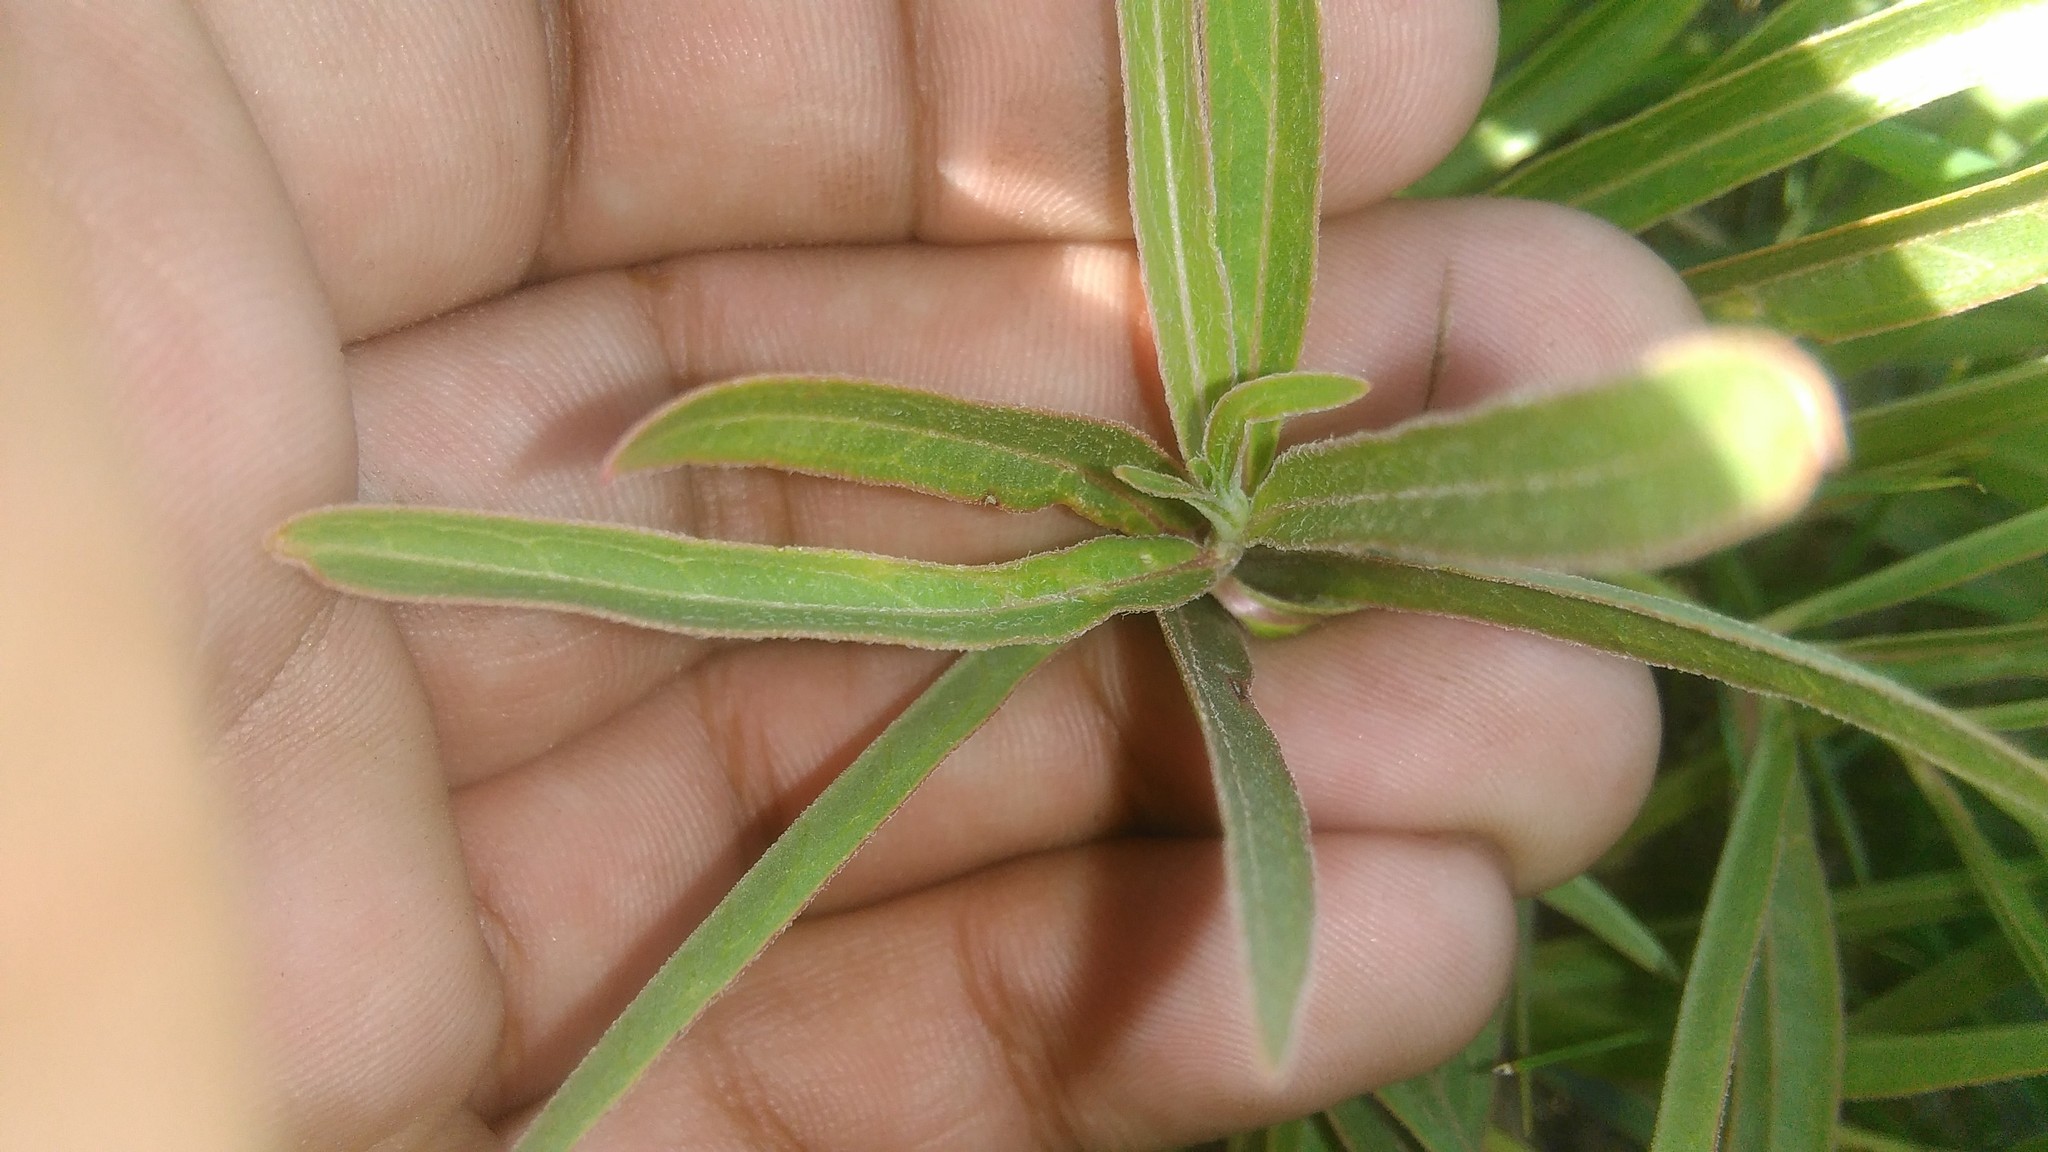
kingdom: Plantae
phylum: Tracheophyta
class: Magnoliopsida
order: Gentianales
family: Apocynaceae
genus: Asclepias
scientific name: Asclepias mellodora
